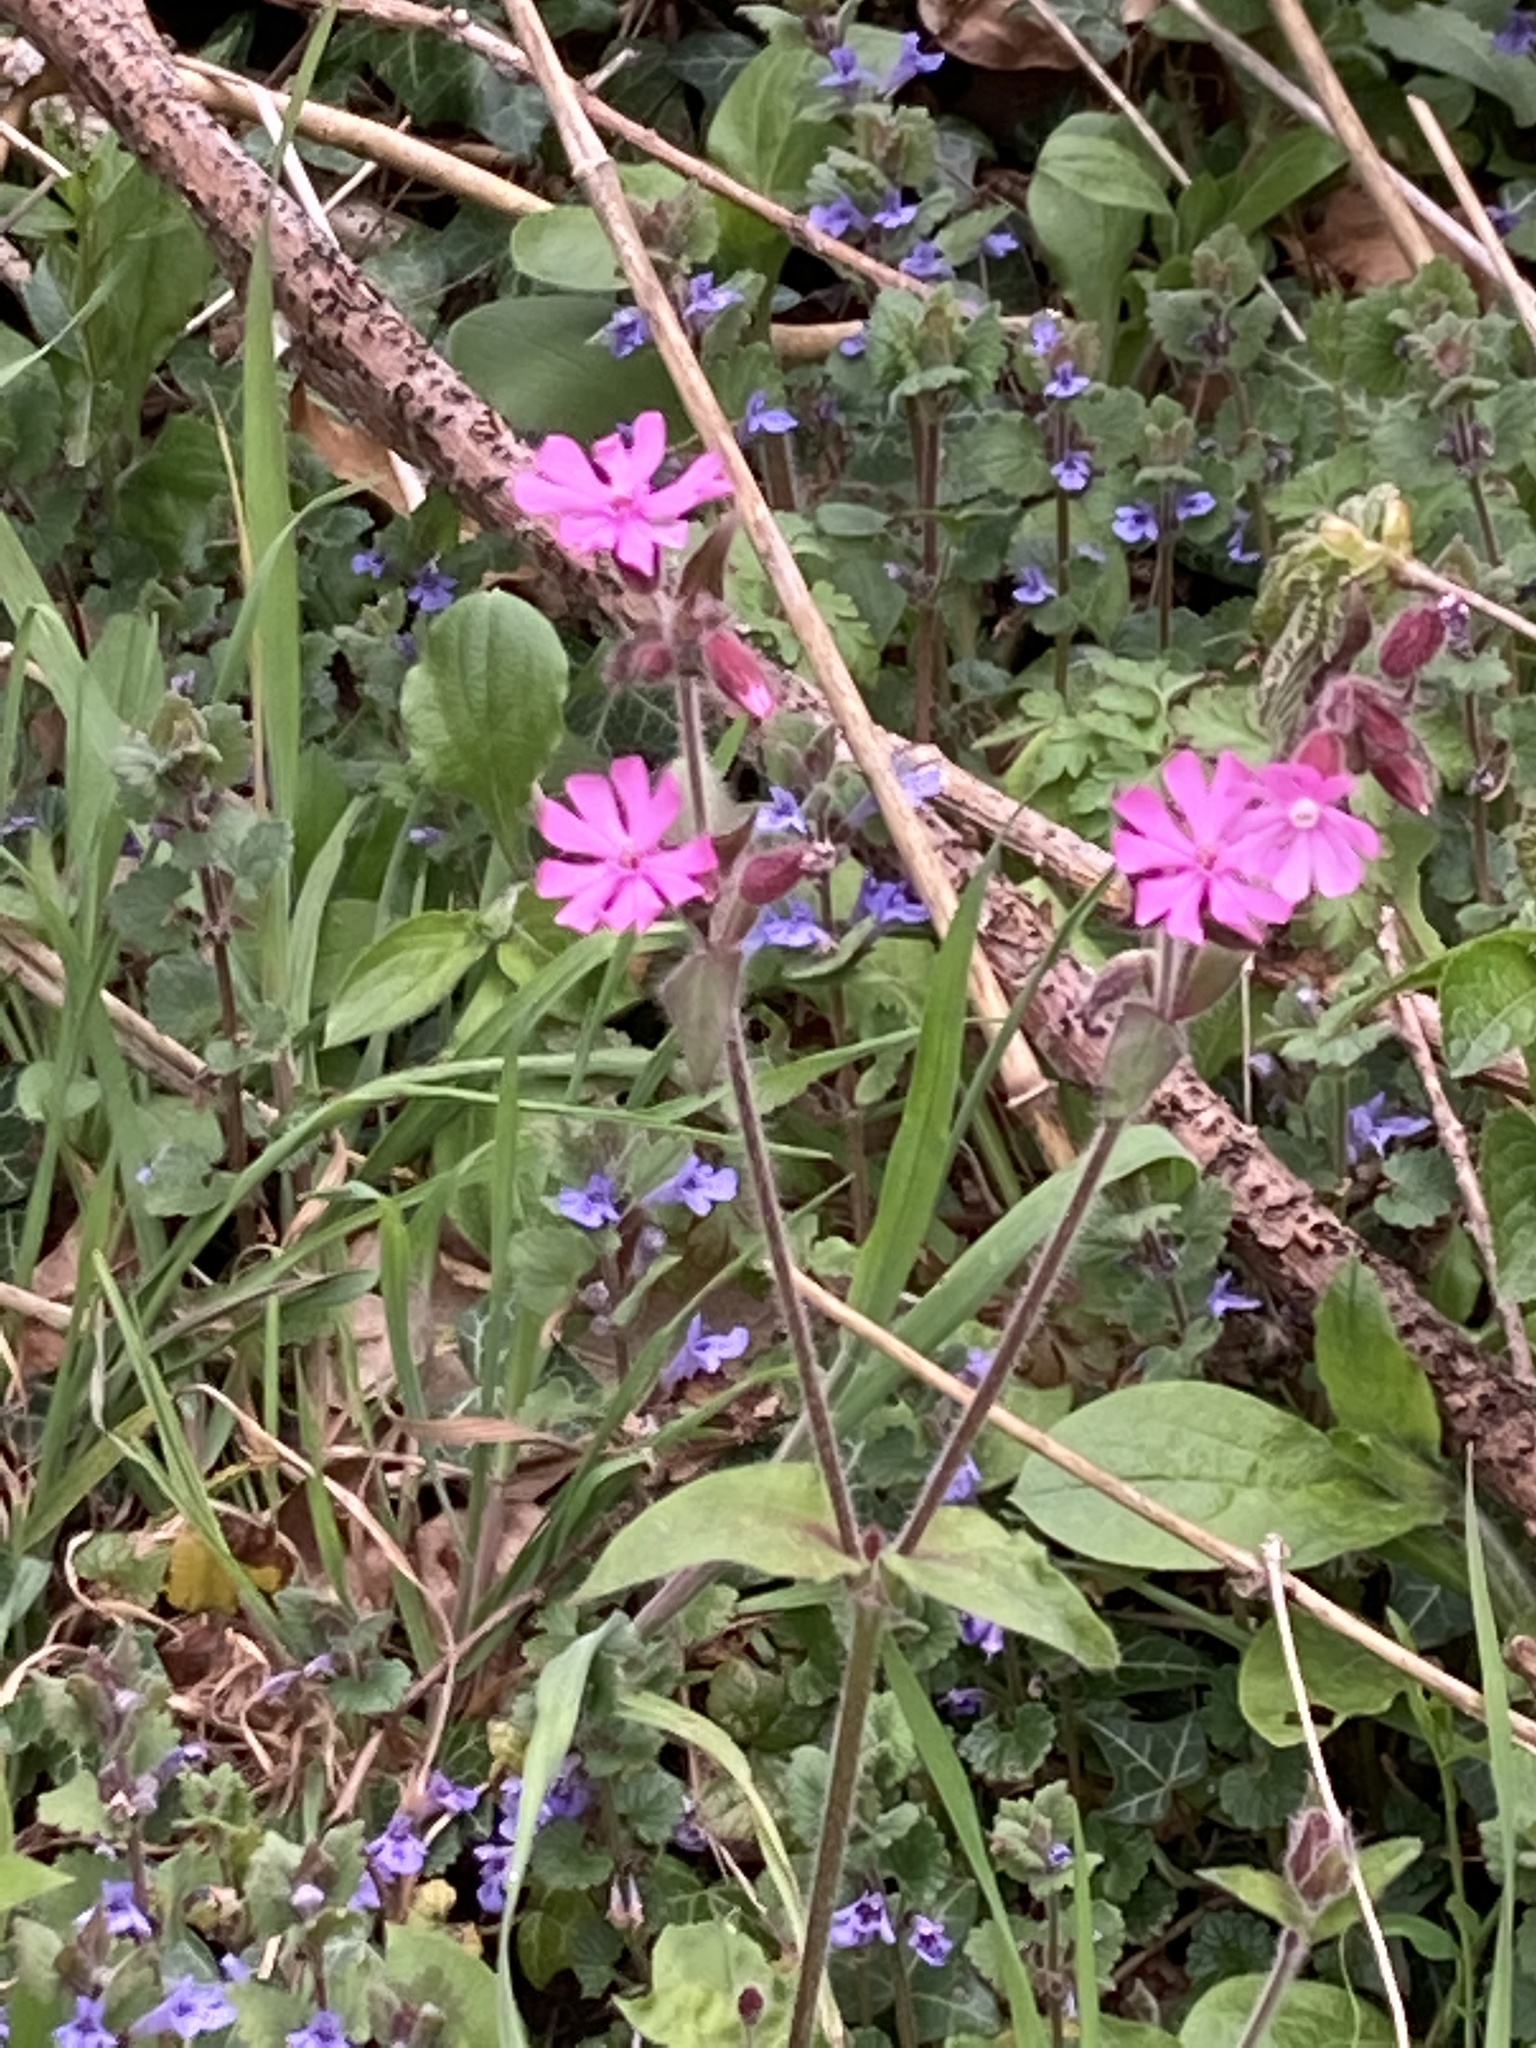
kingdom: Plantae
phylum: Tracheophyta
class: Magnoliopsida
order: Caryophyllales
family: Caryophyllaceae
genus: Silene
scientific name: Silene dioica
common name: Red campion
